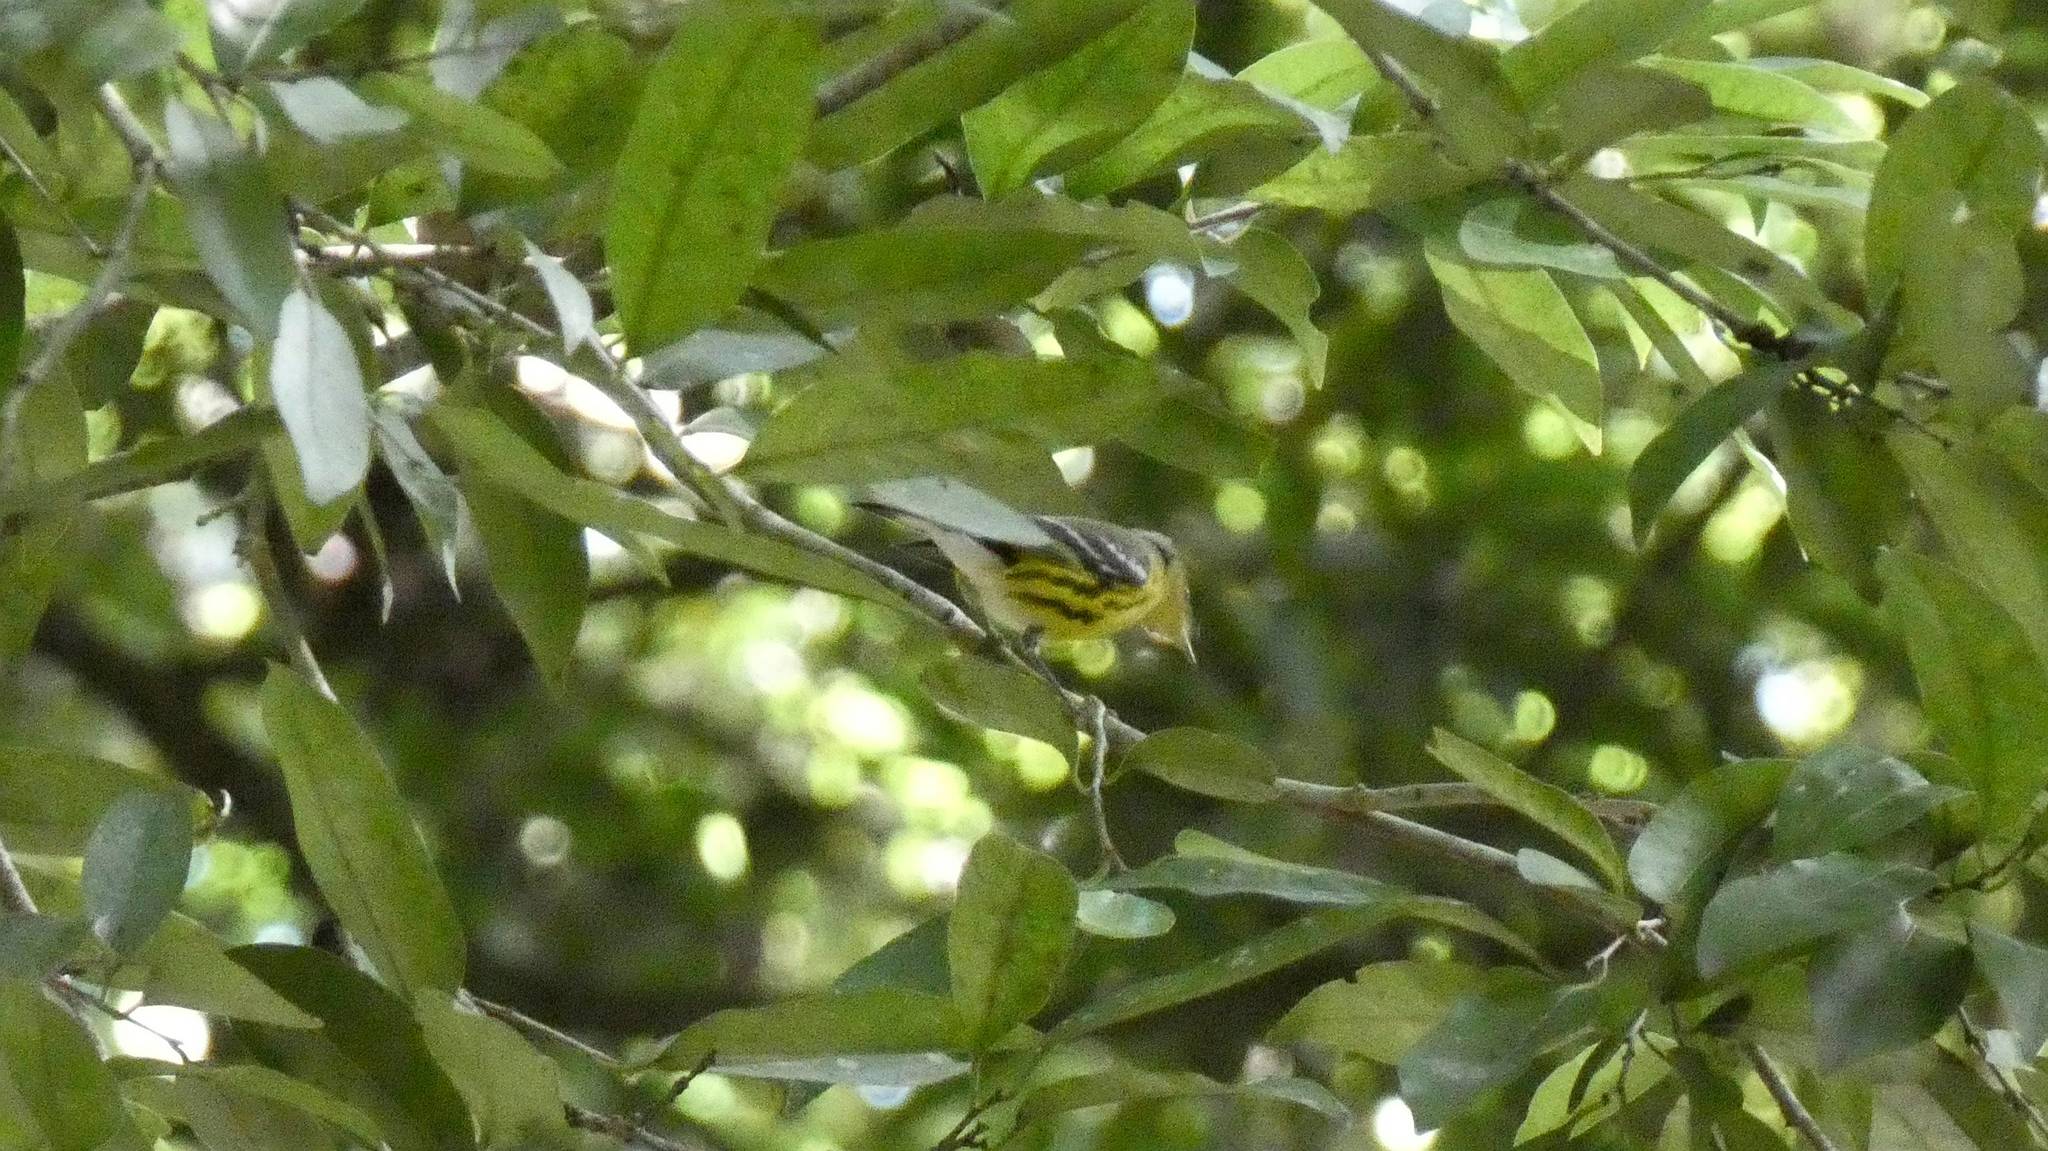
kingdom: Animalia
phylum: Chordata
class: Aves
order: Passeriformes
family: Parulidae
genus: Setophaga
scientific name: Setophaga magnolia
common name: Magnolia warbler
